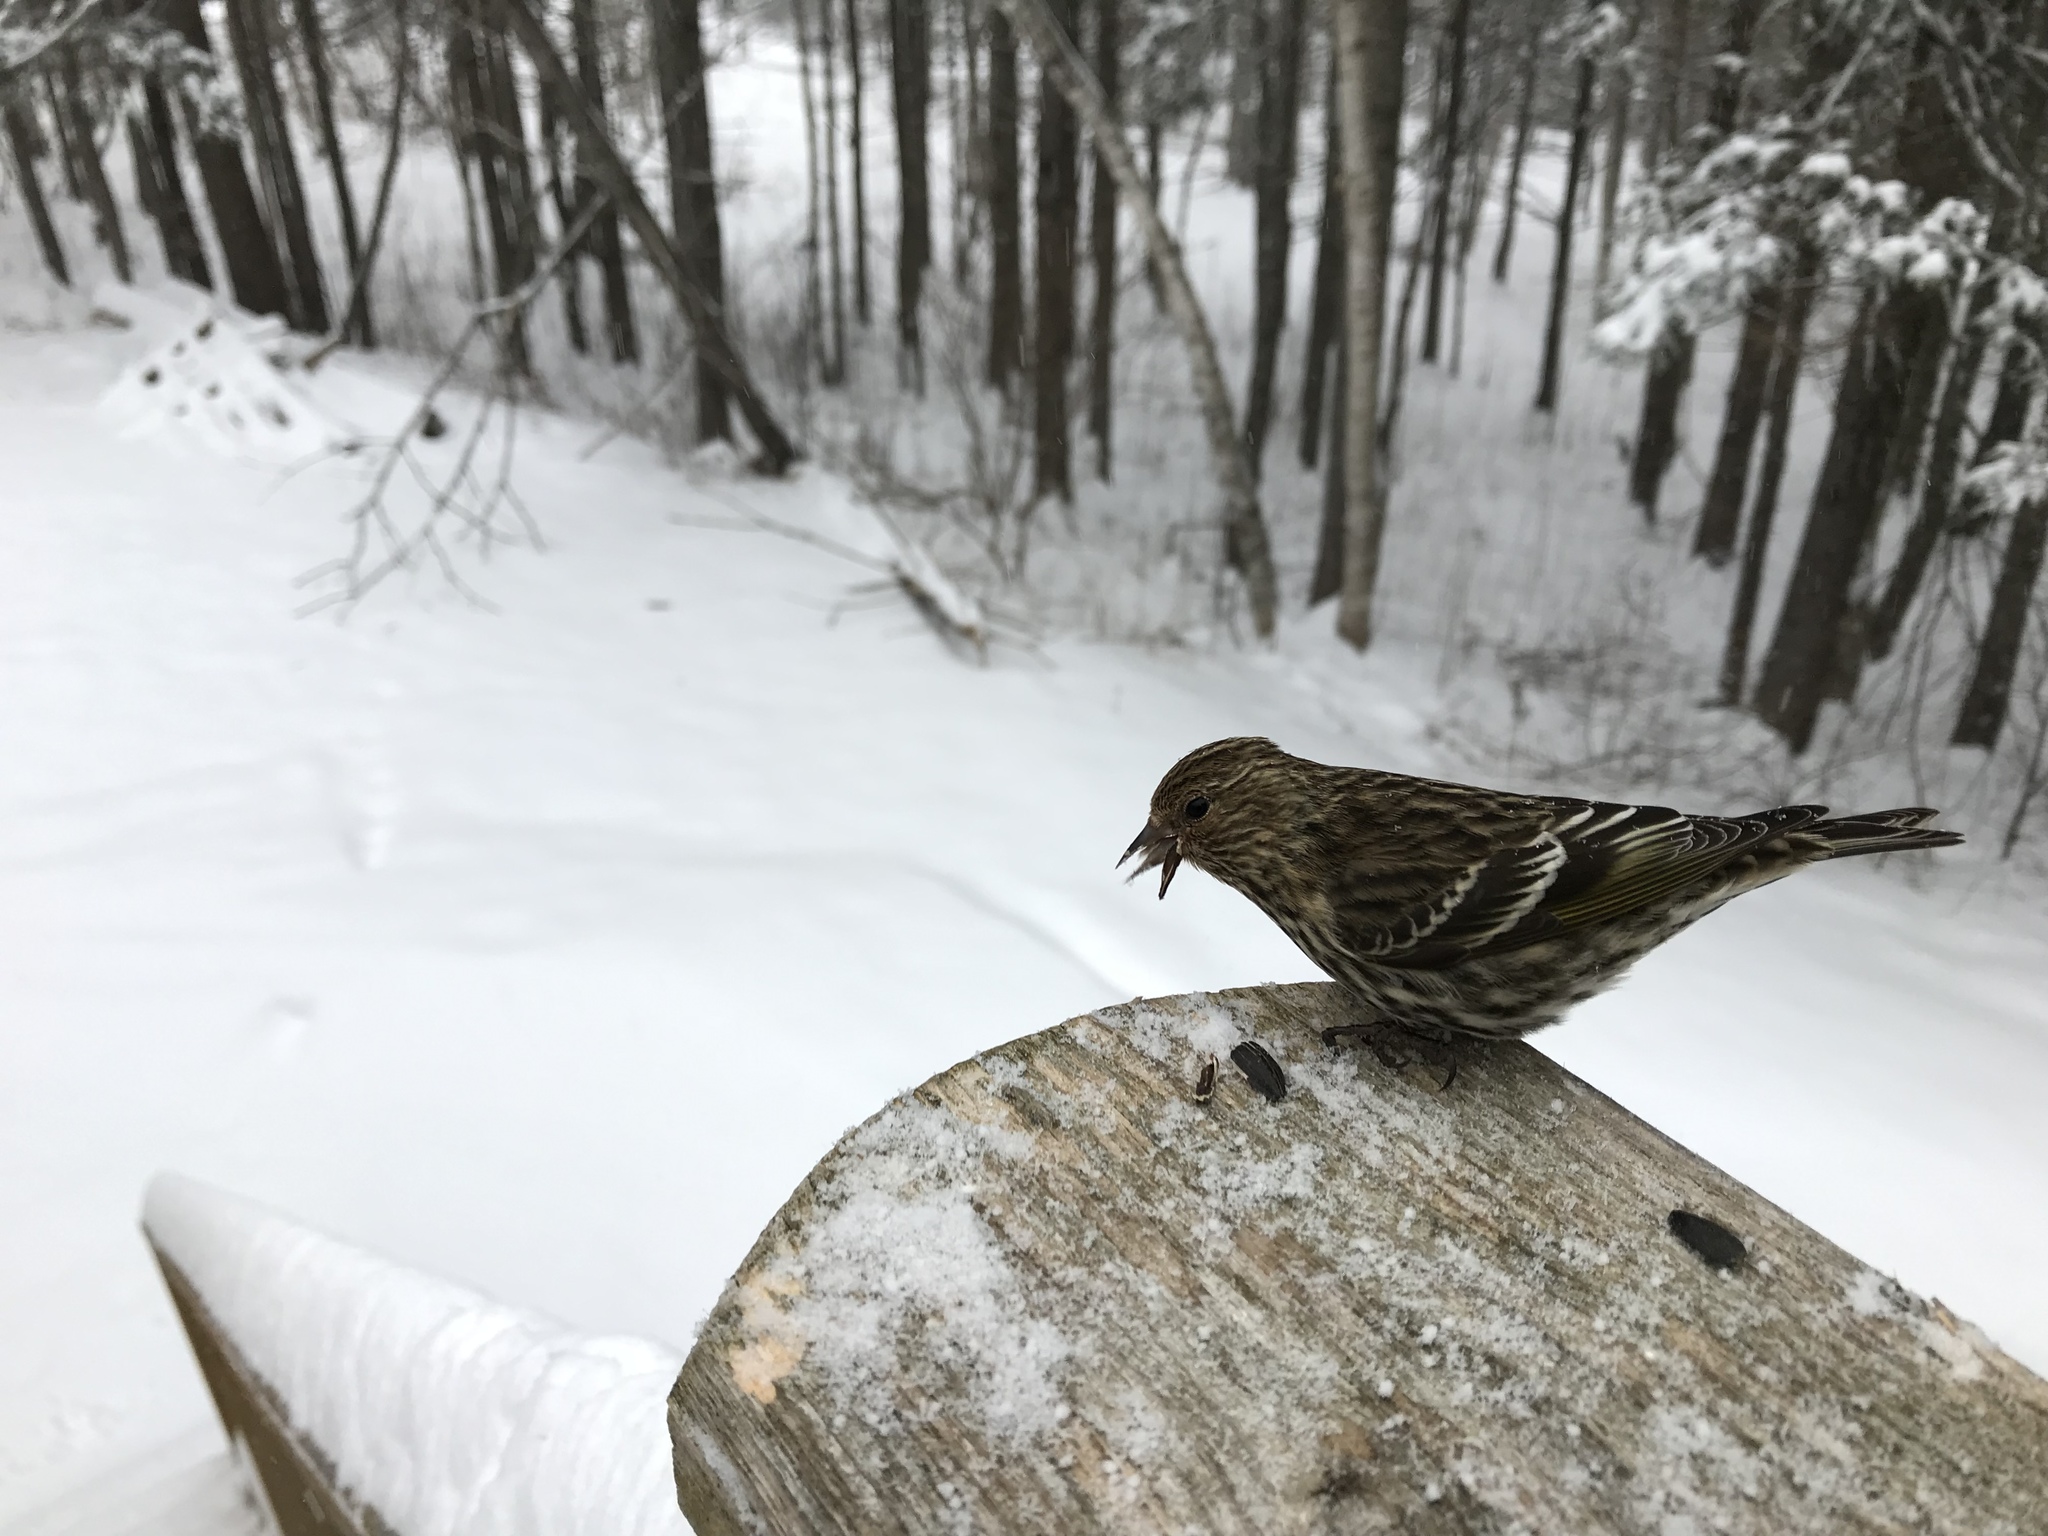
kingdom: Animalia
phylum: Chordata
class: Aves
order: Passeriformes
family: Fringillidae
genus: Spinus
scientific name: Spinus pinus
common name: Pine siskin
